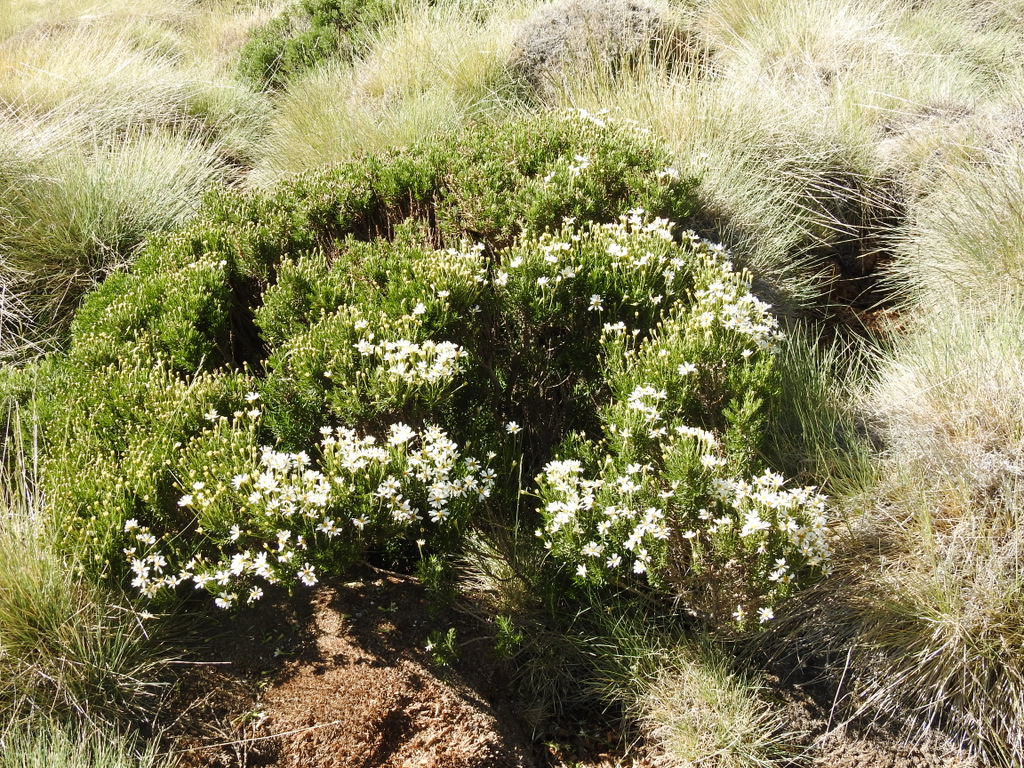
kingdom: Plantae
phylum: Tracheophyta
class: Magnoliopsida
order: Asterales
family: Asteraceae
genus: Chiliotrichum
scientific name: Chiliotrichum diffusum
